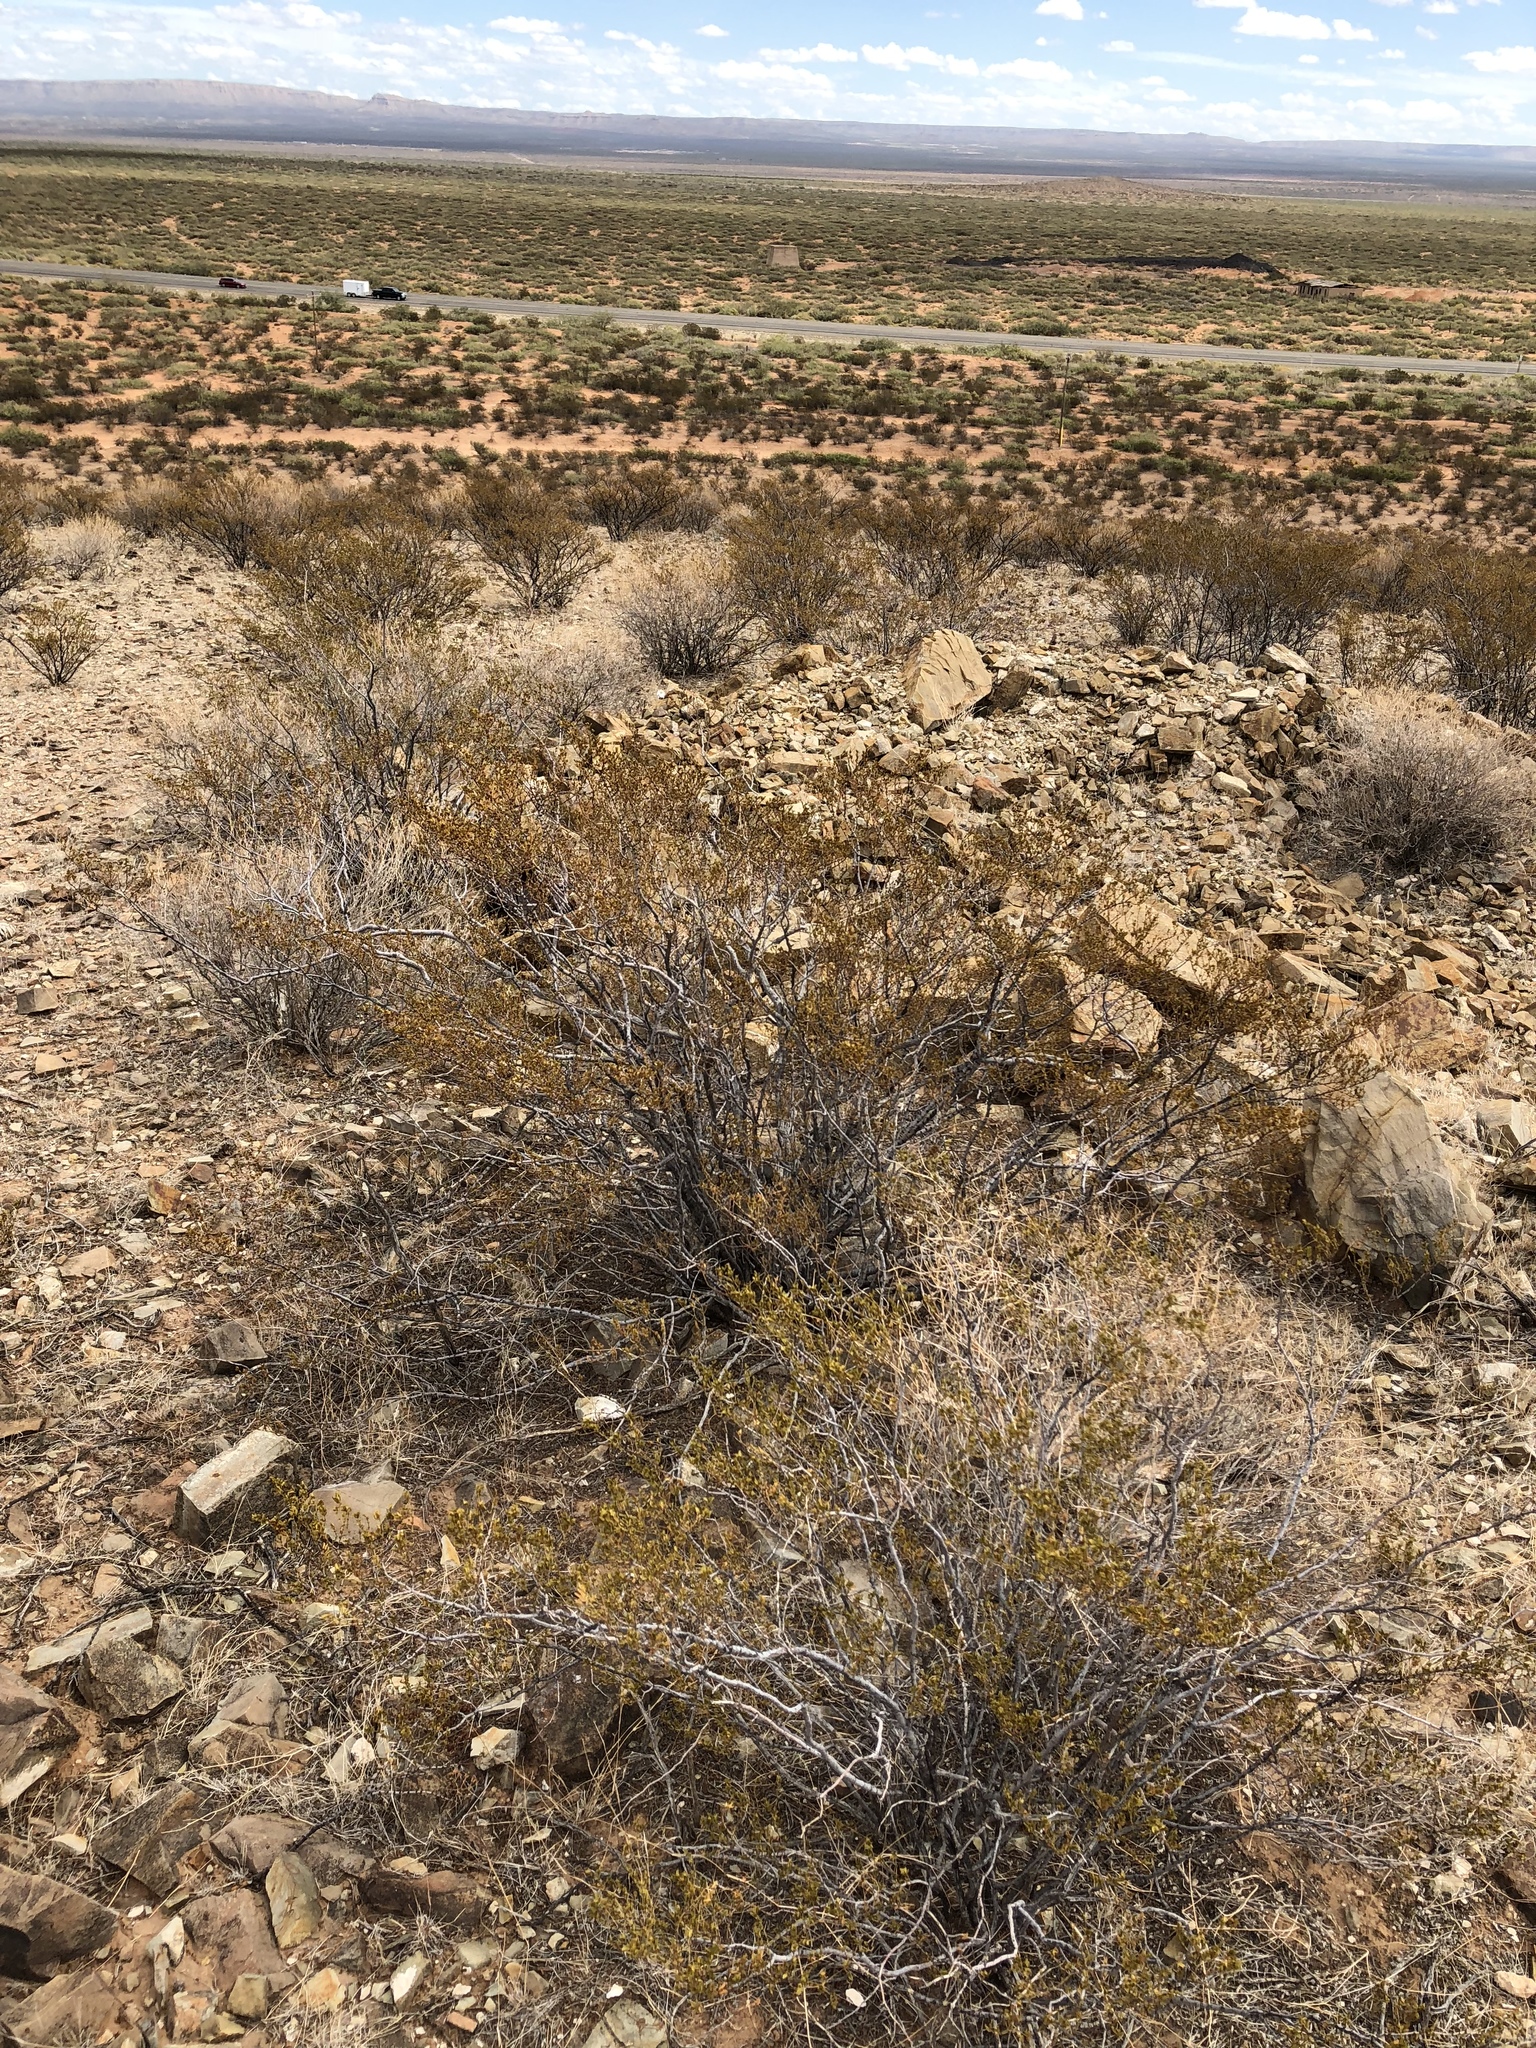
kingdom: Plantae
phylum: Tracheophyta
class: Magnoliopsida
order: Zygophyllales
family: Zygophyllaceae
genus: Larrea
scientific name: Larrea tridentata
